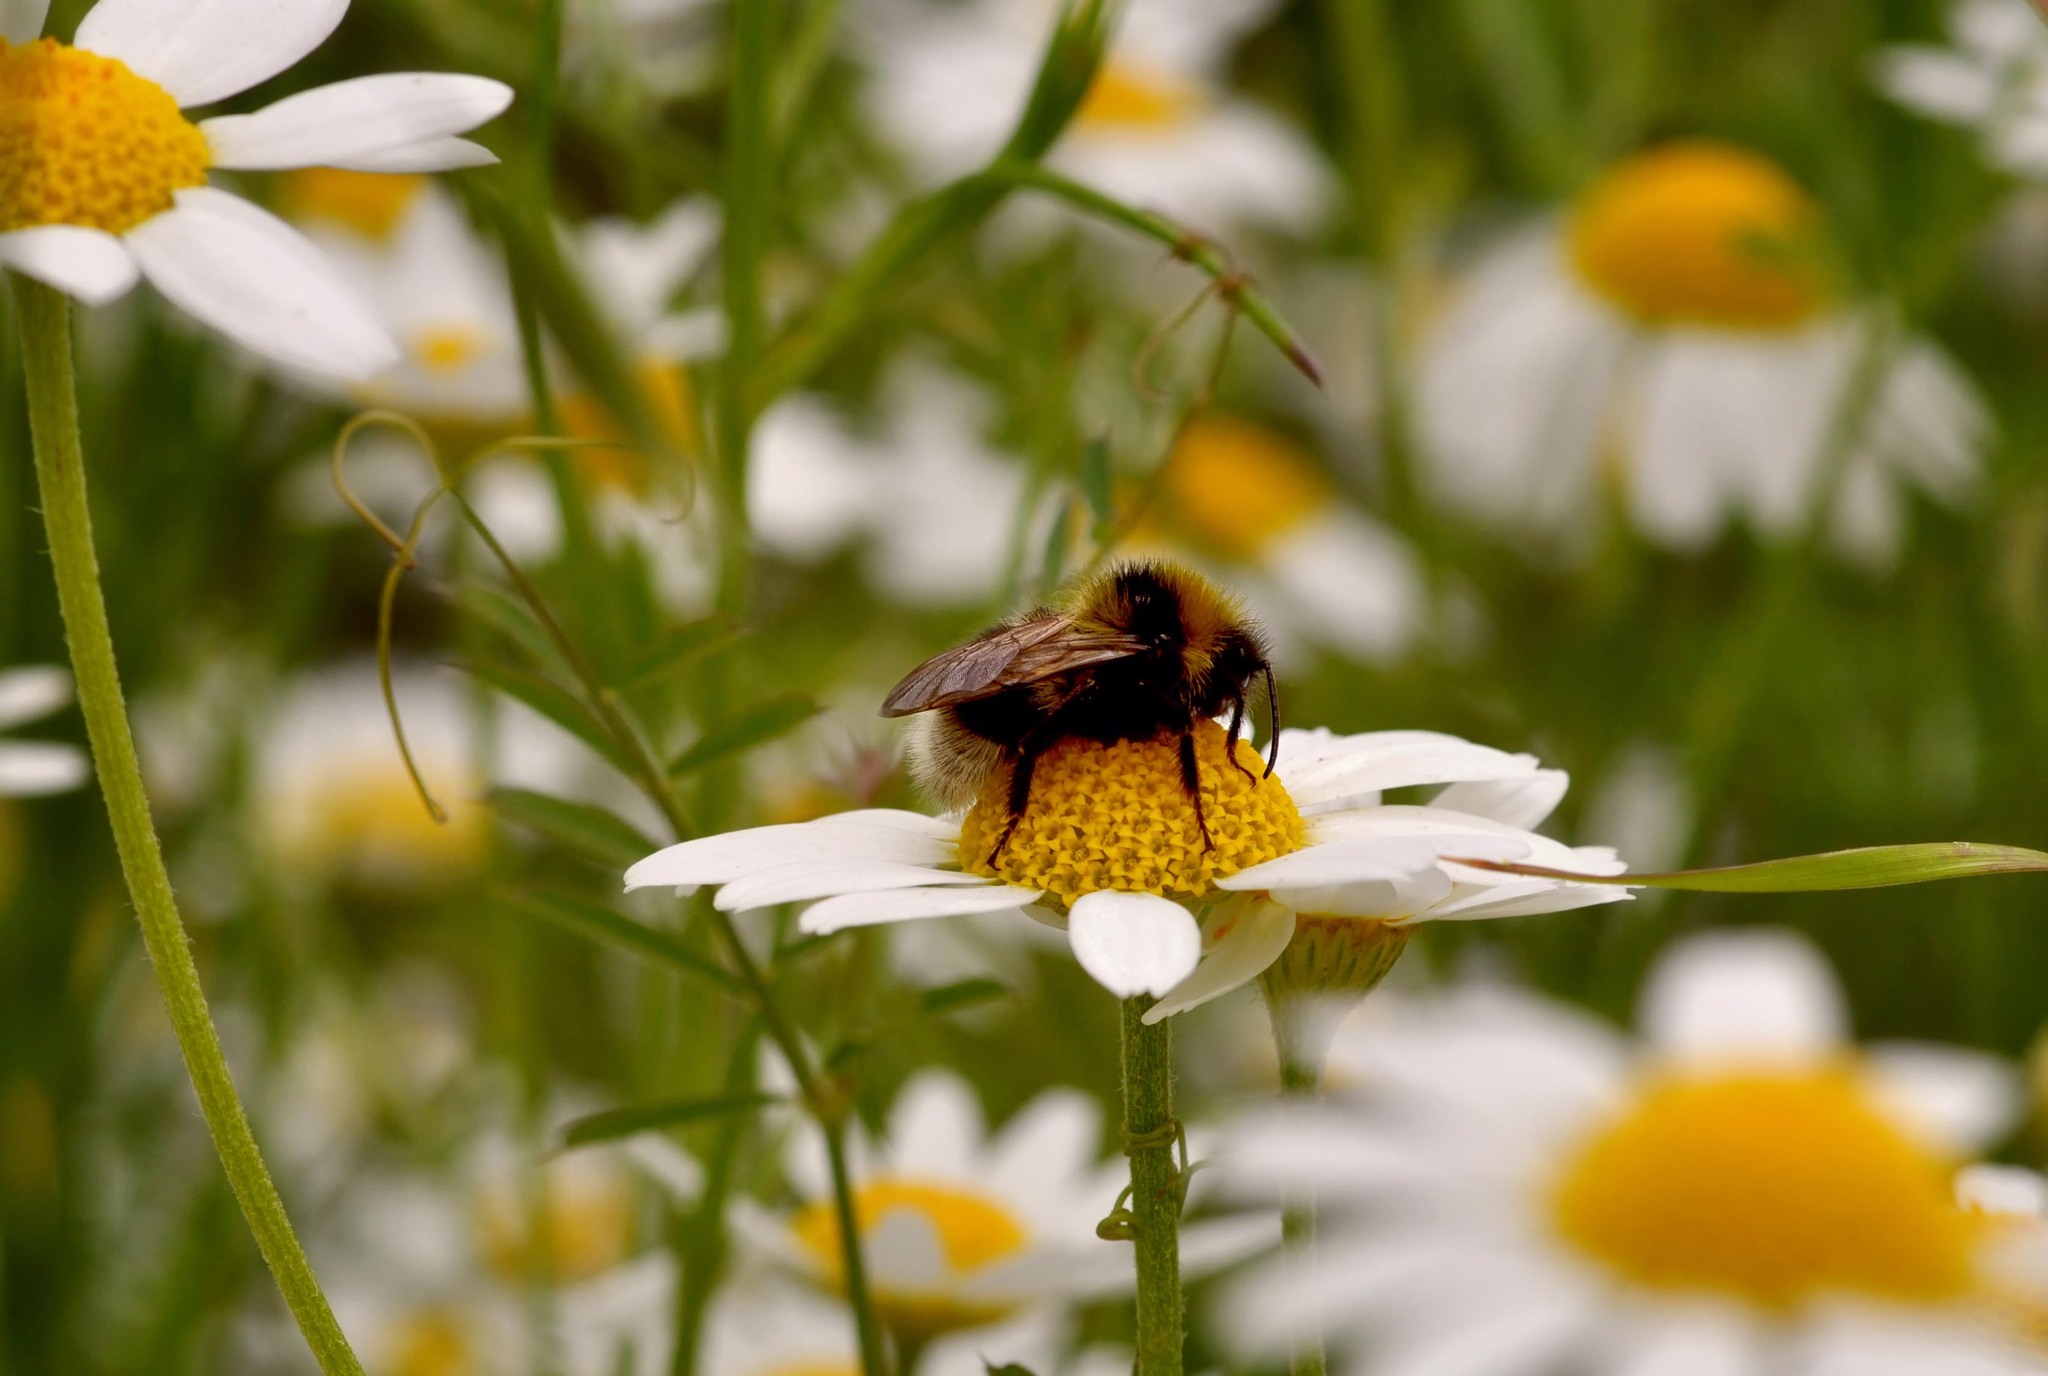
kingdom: Animalia
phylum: Arthropoda
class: Insecta
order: Hymenoptera
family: Apidae
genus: Bombus
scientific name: Bombus jonellus
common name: Heath humble-bee
